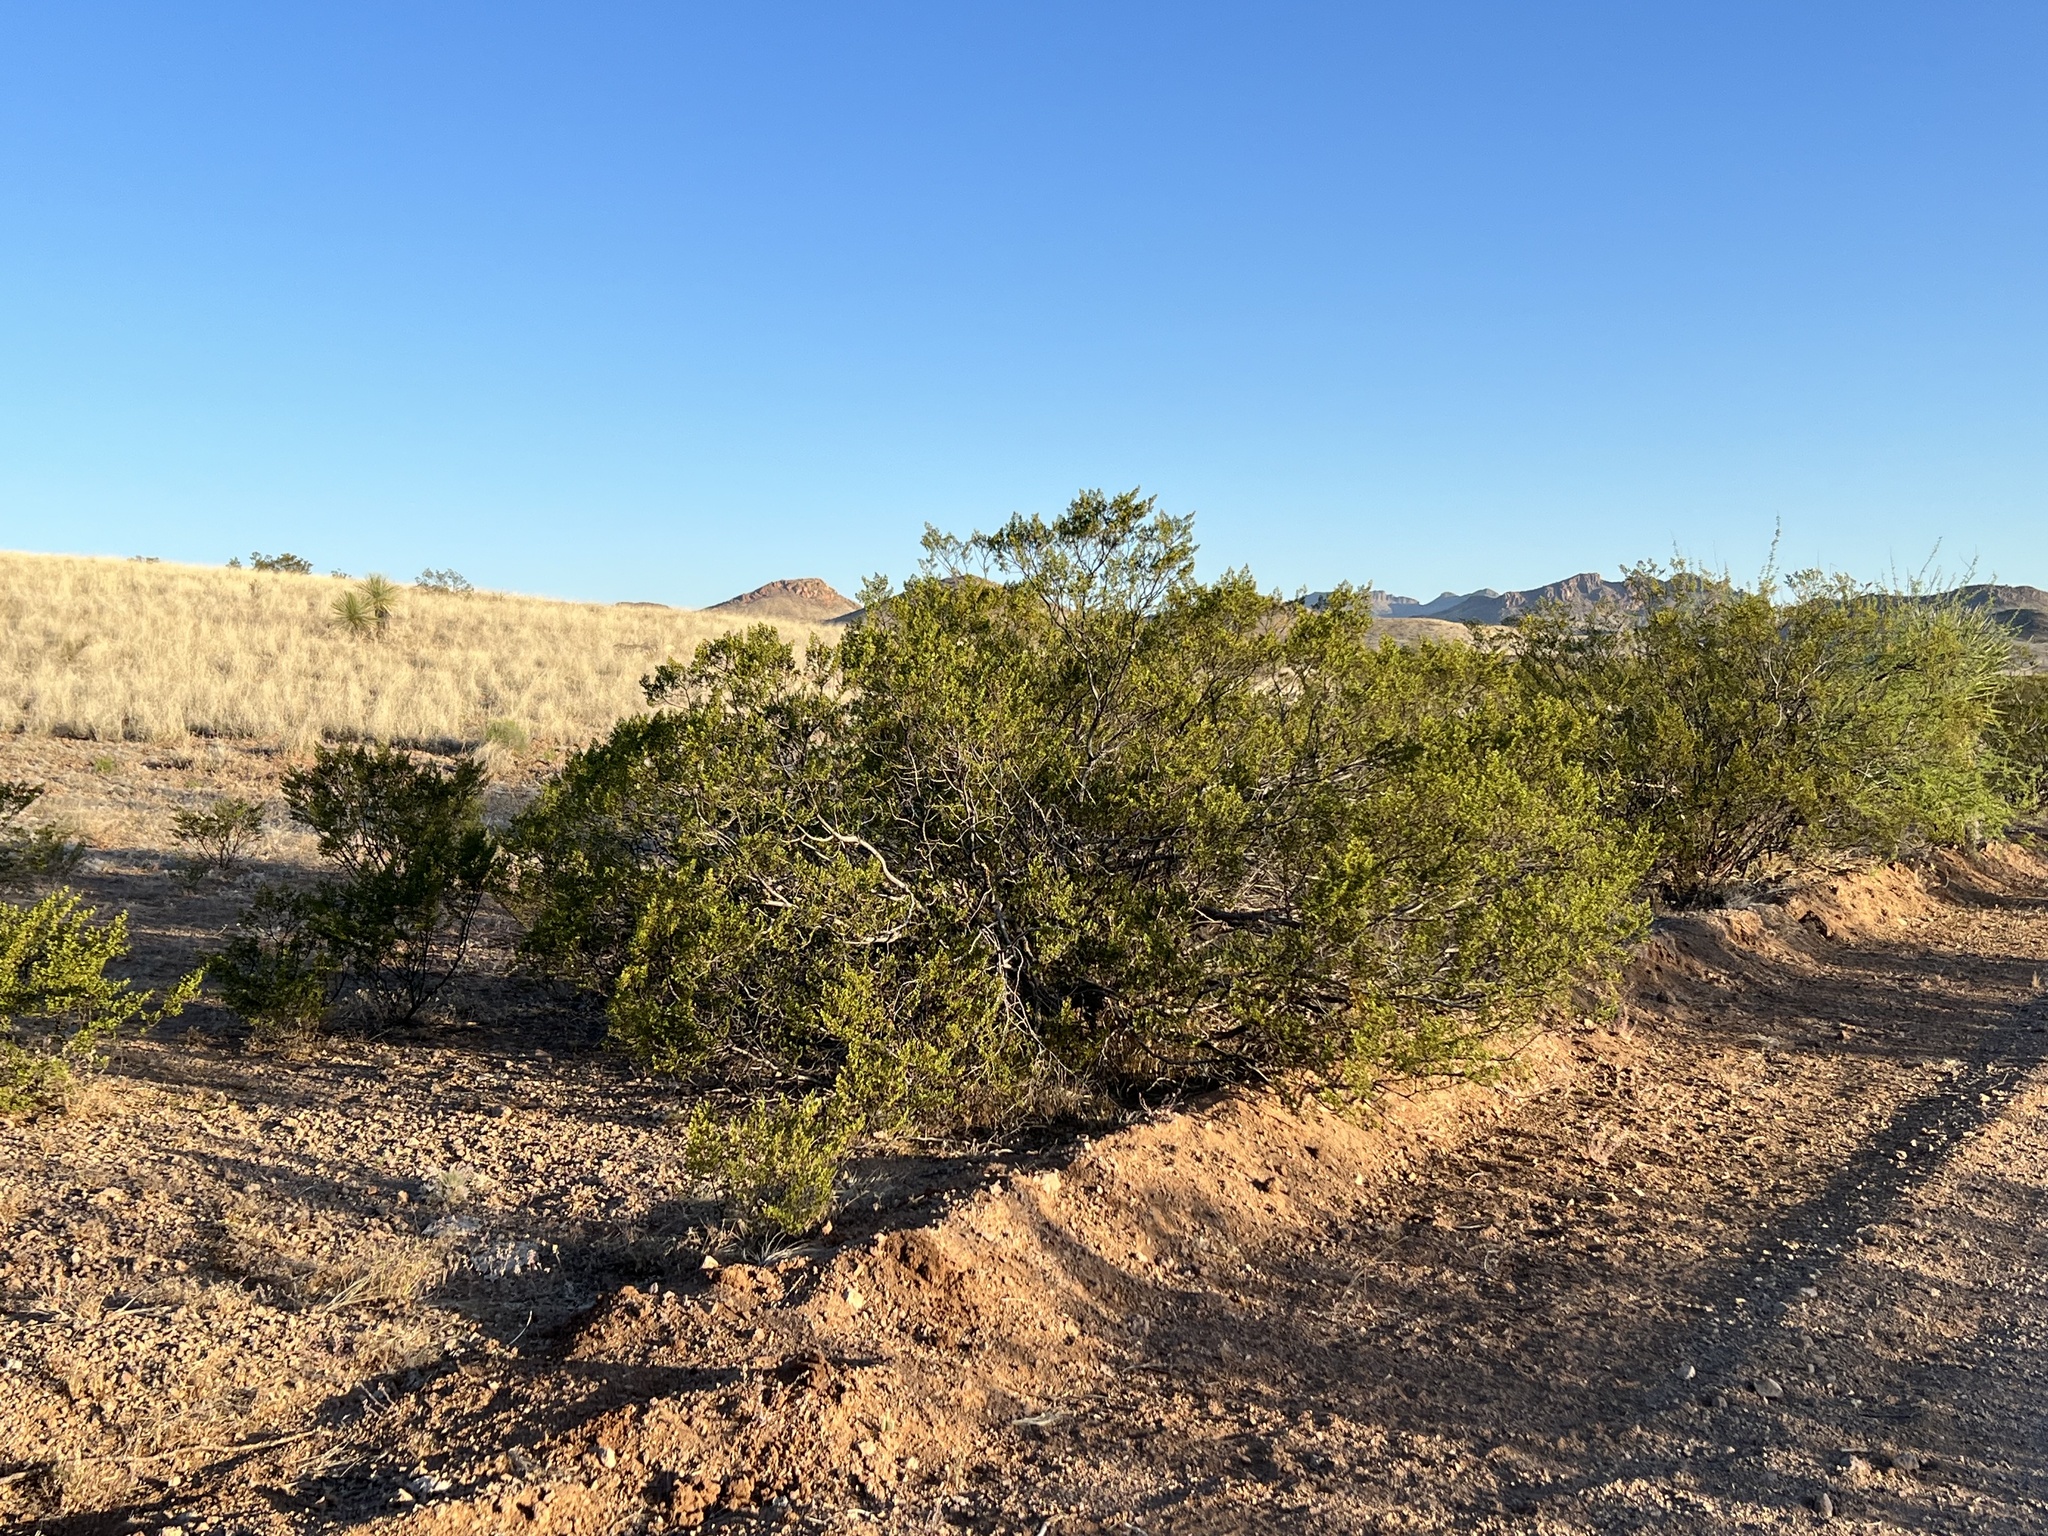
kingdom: Plantae
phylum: Tracheophyta
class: Magnoliopsida
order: Zygophyllales
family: Zygophyllaceae
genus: Larrea
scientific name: Larrea tridentata
